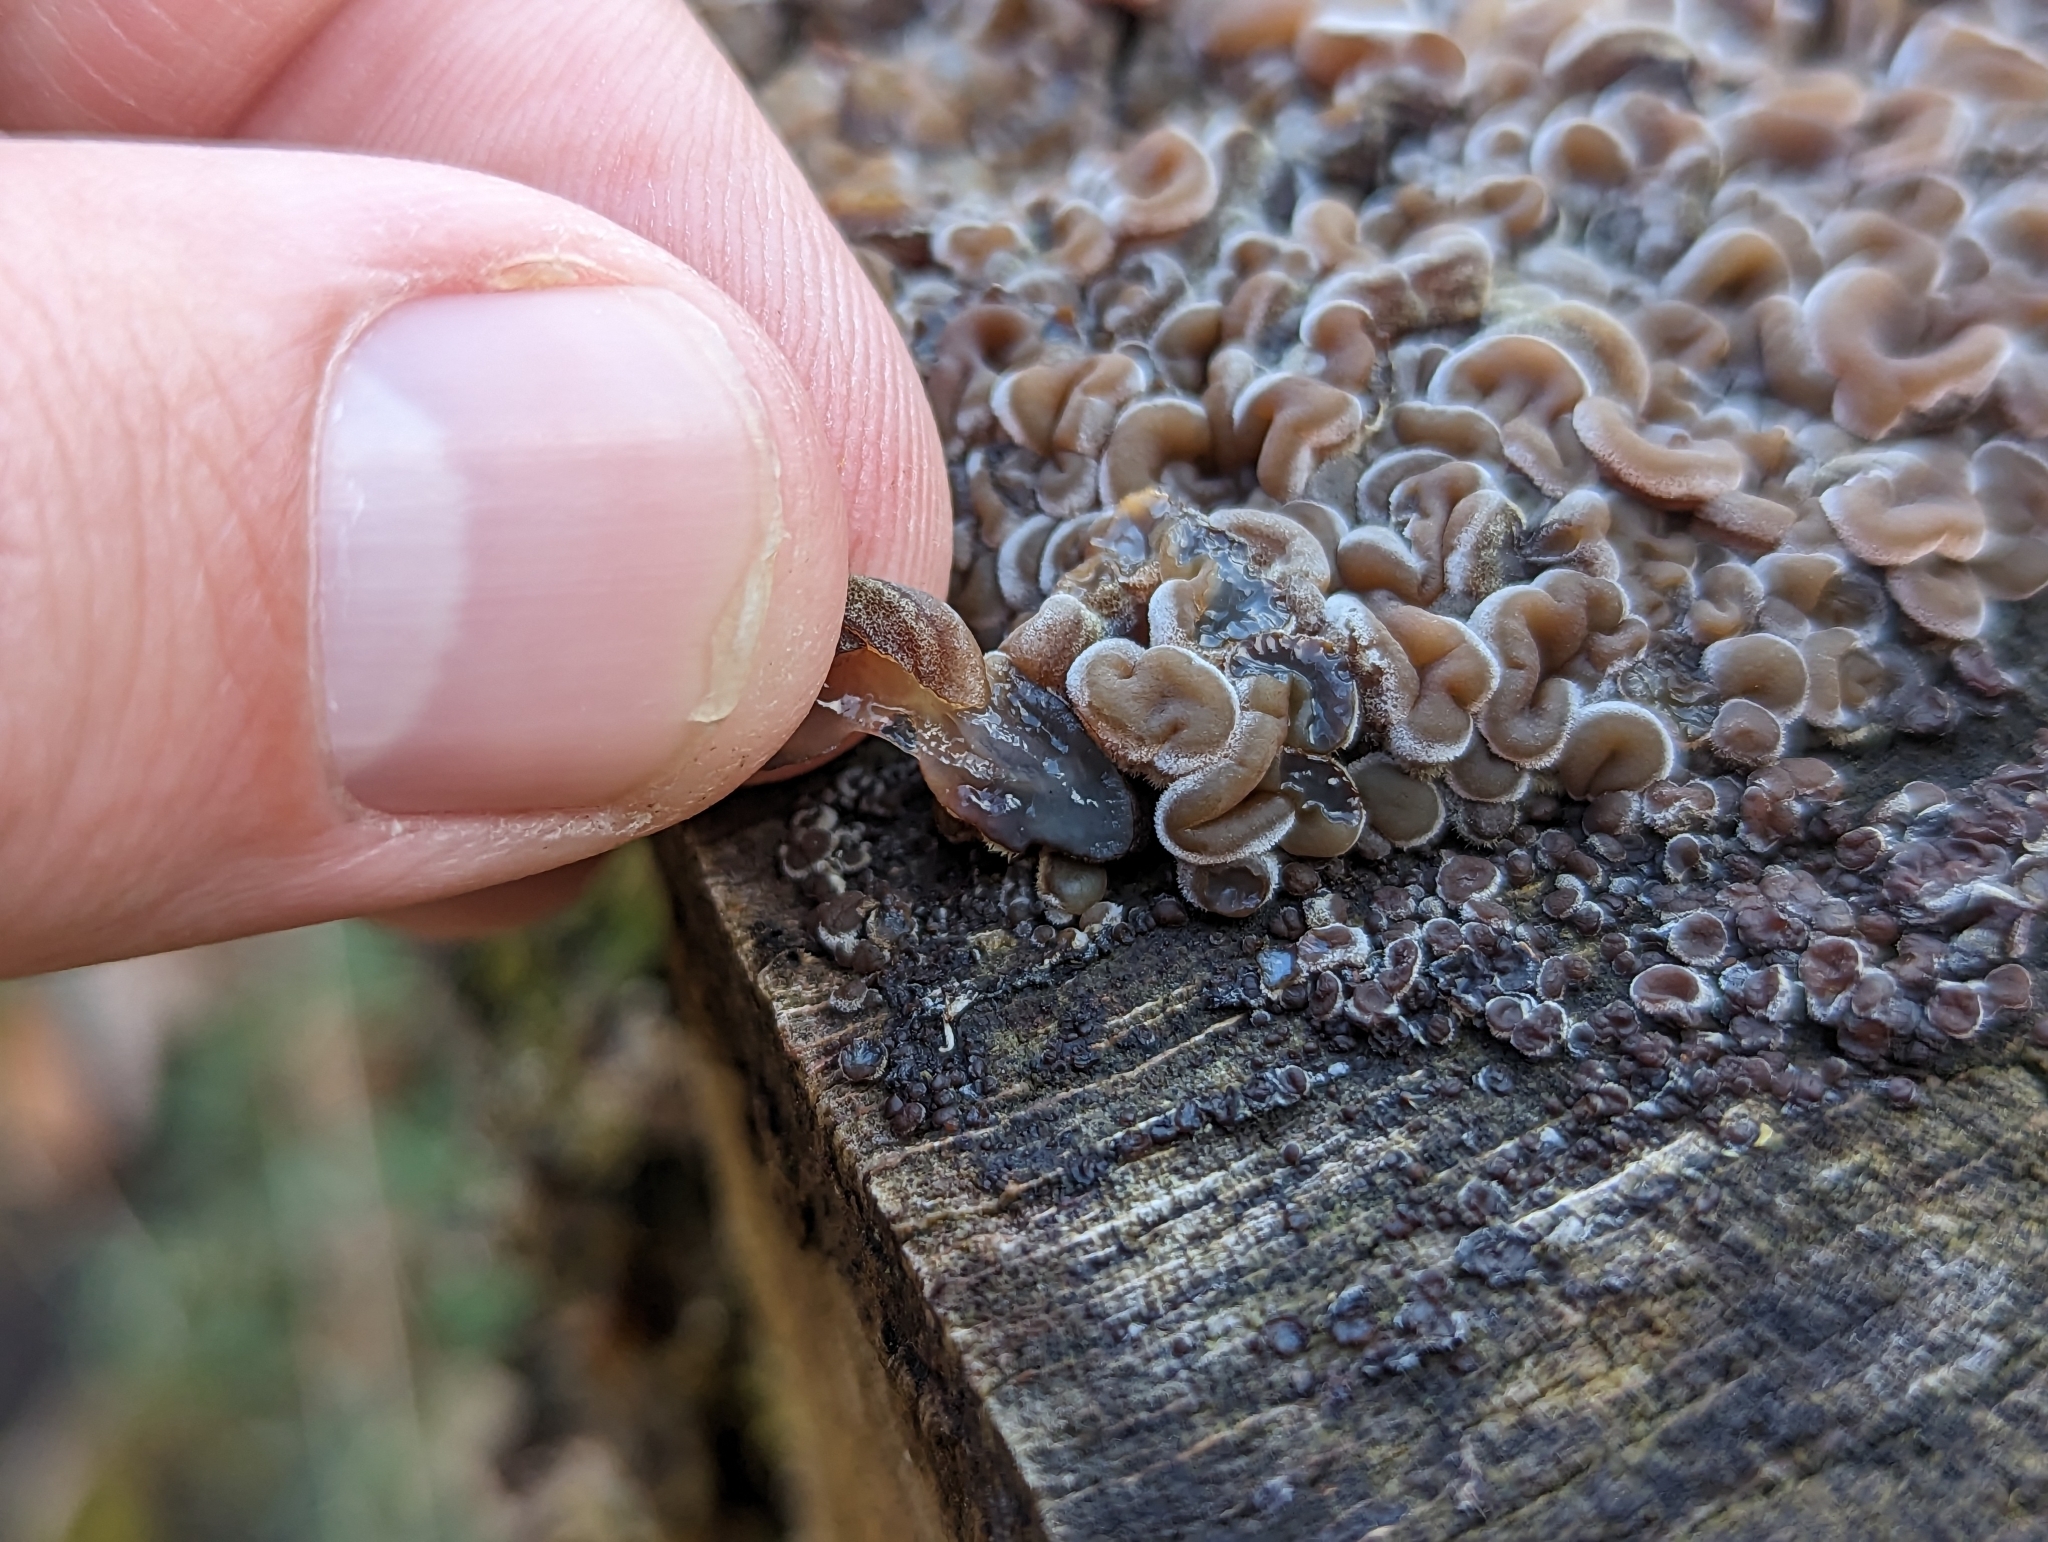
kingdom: Fungi
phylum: Basidiomycota
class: Agaricomycetes
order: Auriculariales
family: Auriculariaceae
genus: Auricularia
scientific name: Auricularia mesenterica
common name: Tripe fungus
